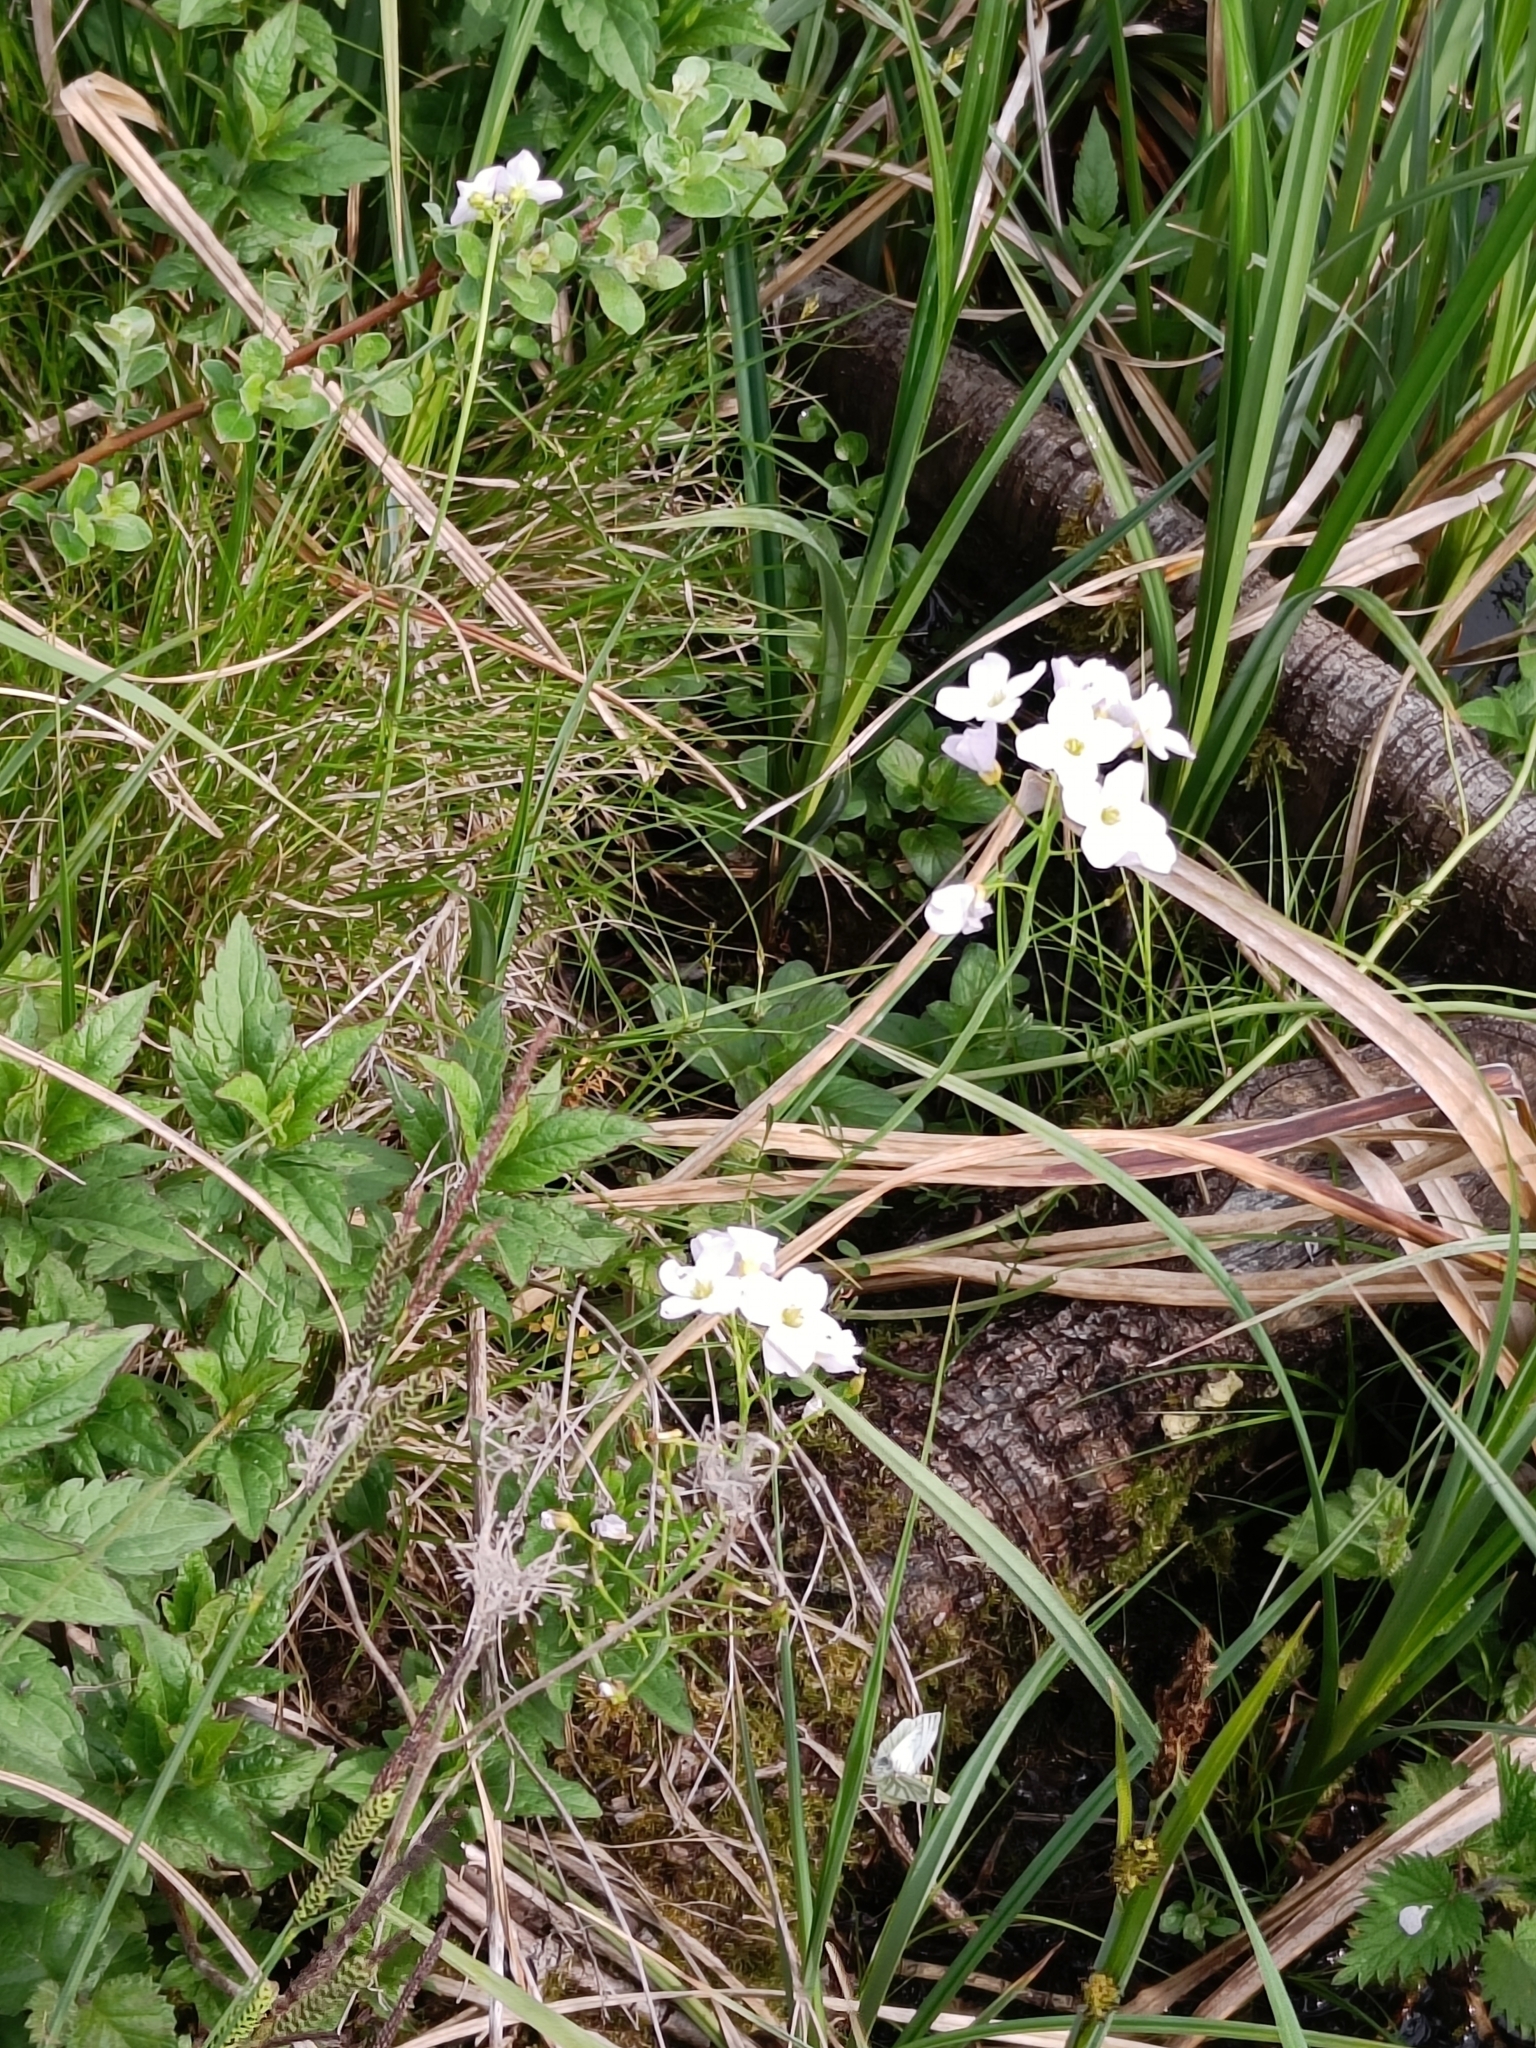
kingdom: Plantae
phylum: Tracheophyta
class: Magnoliopsida
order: Brassicales
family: Brassicaceae
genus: Cardamine
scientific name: Cardamine pratensis
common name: Cuckoo flower
